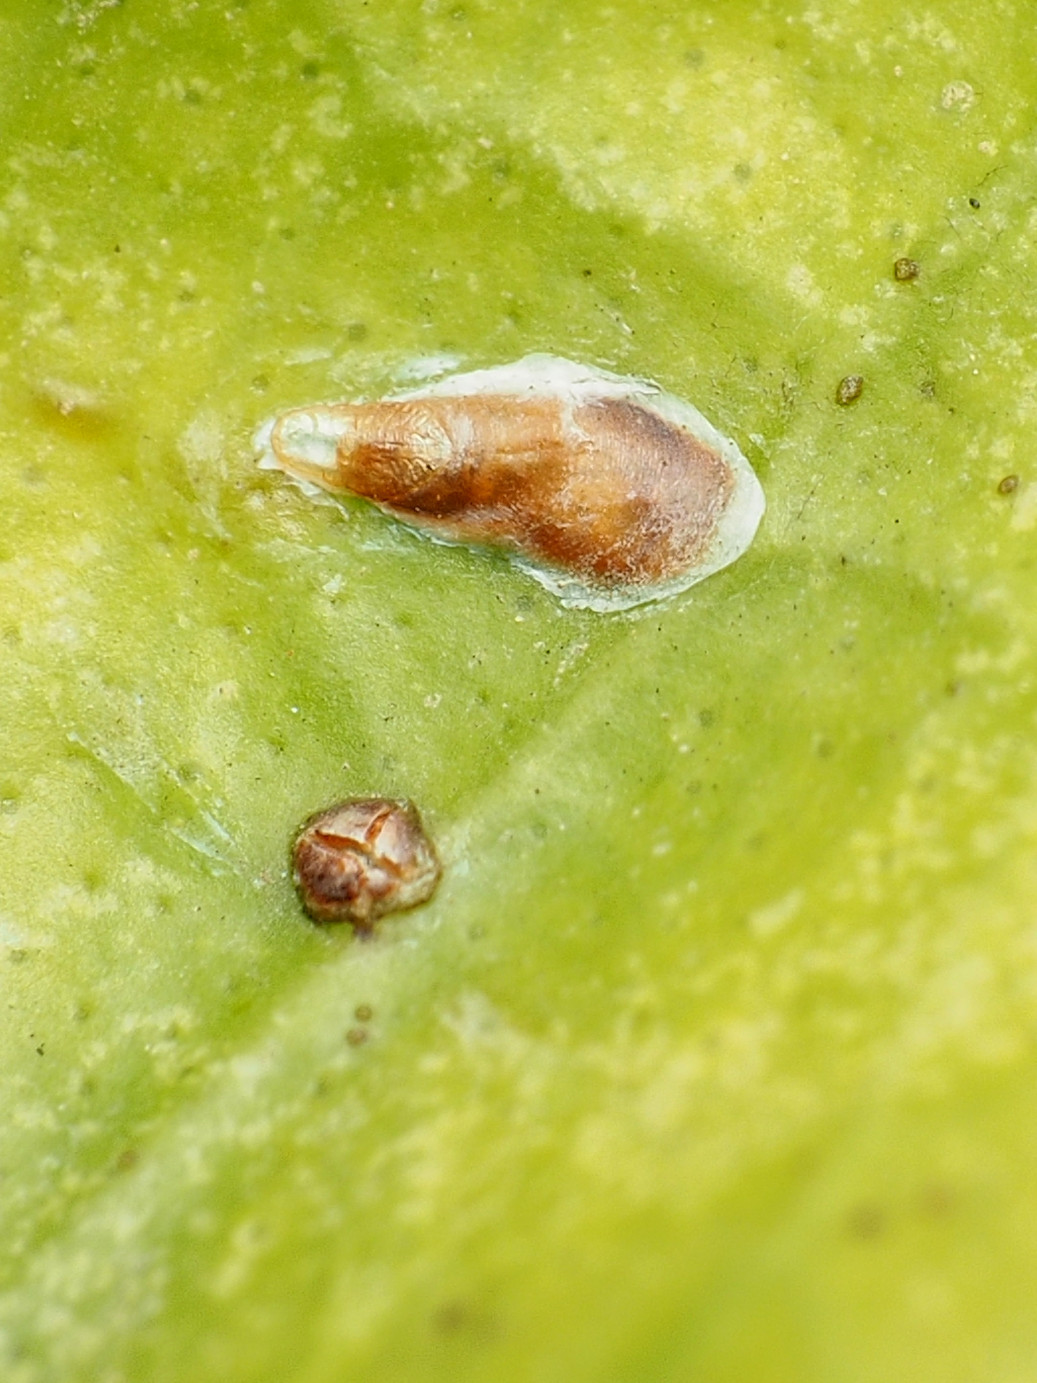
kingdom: Animalia
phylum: Arthropoda
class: Insecta
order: Hemiptera
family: Diaspididae
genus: Lepidosaphes
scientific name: Lepidosaphes beckii
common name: Purple scale
